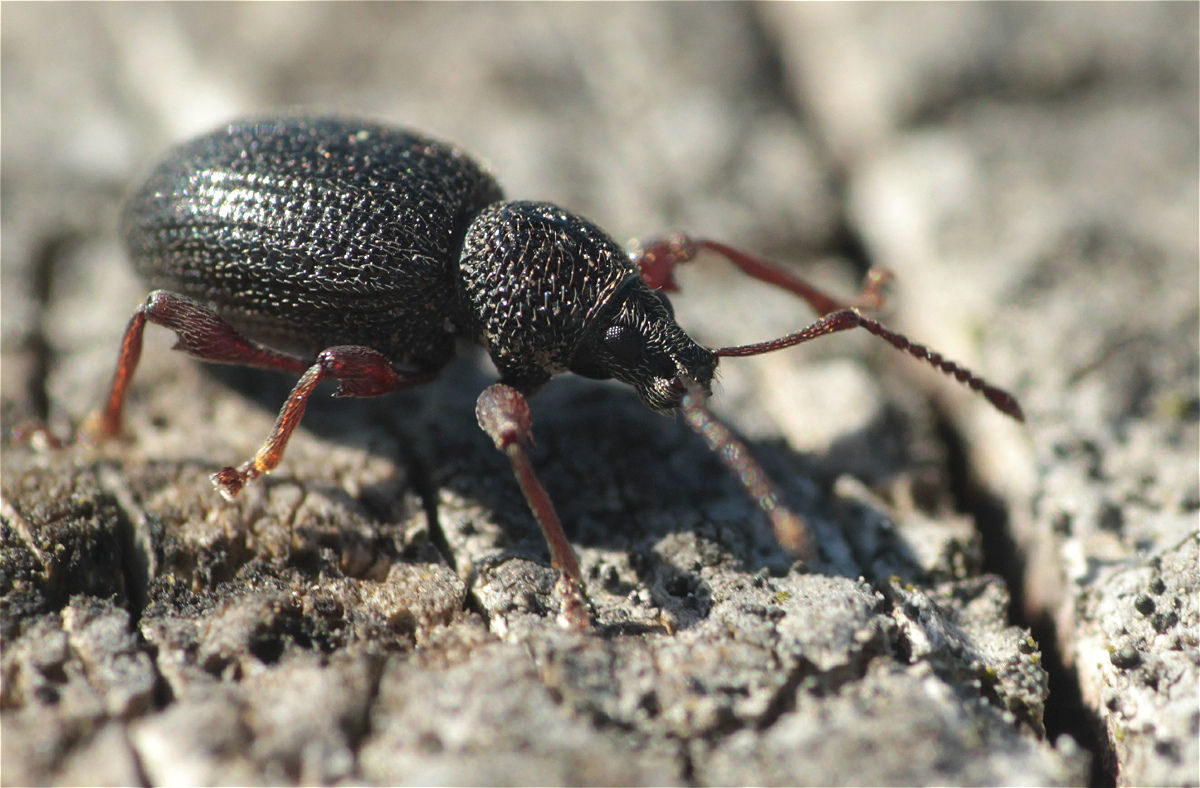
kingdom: Animalia
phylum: Arthropoda
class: Insecta
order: Coleoptera
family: Curculionidae
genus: Otiorhynchus
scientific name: Otiorhynchus ovatus
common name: Strawberry root weevil
